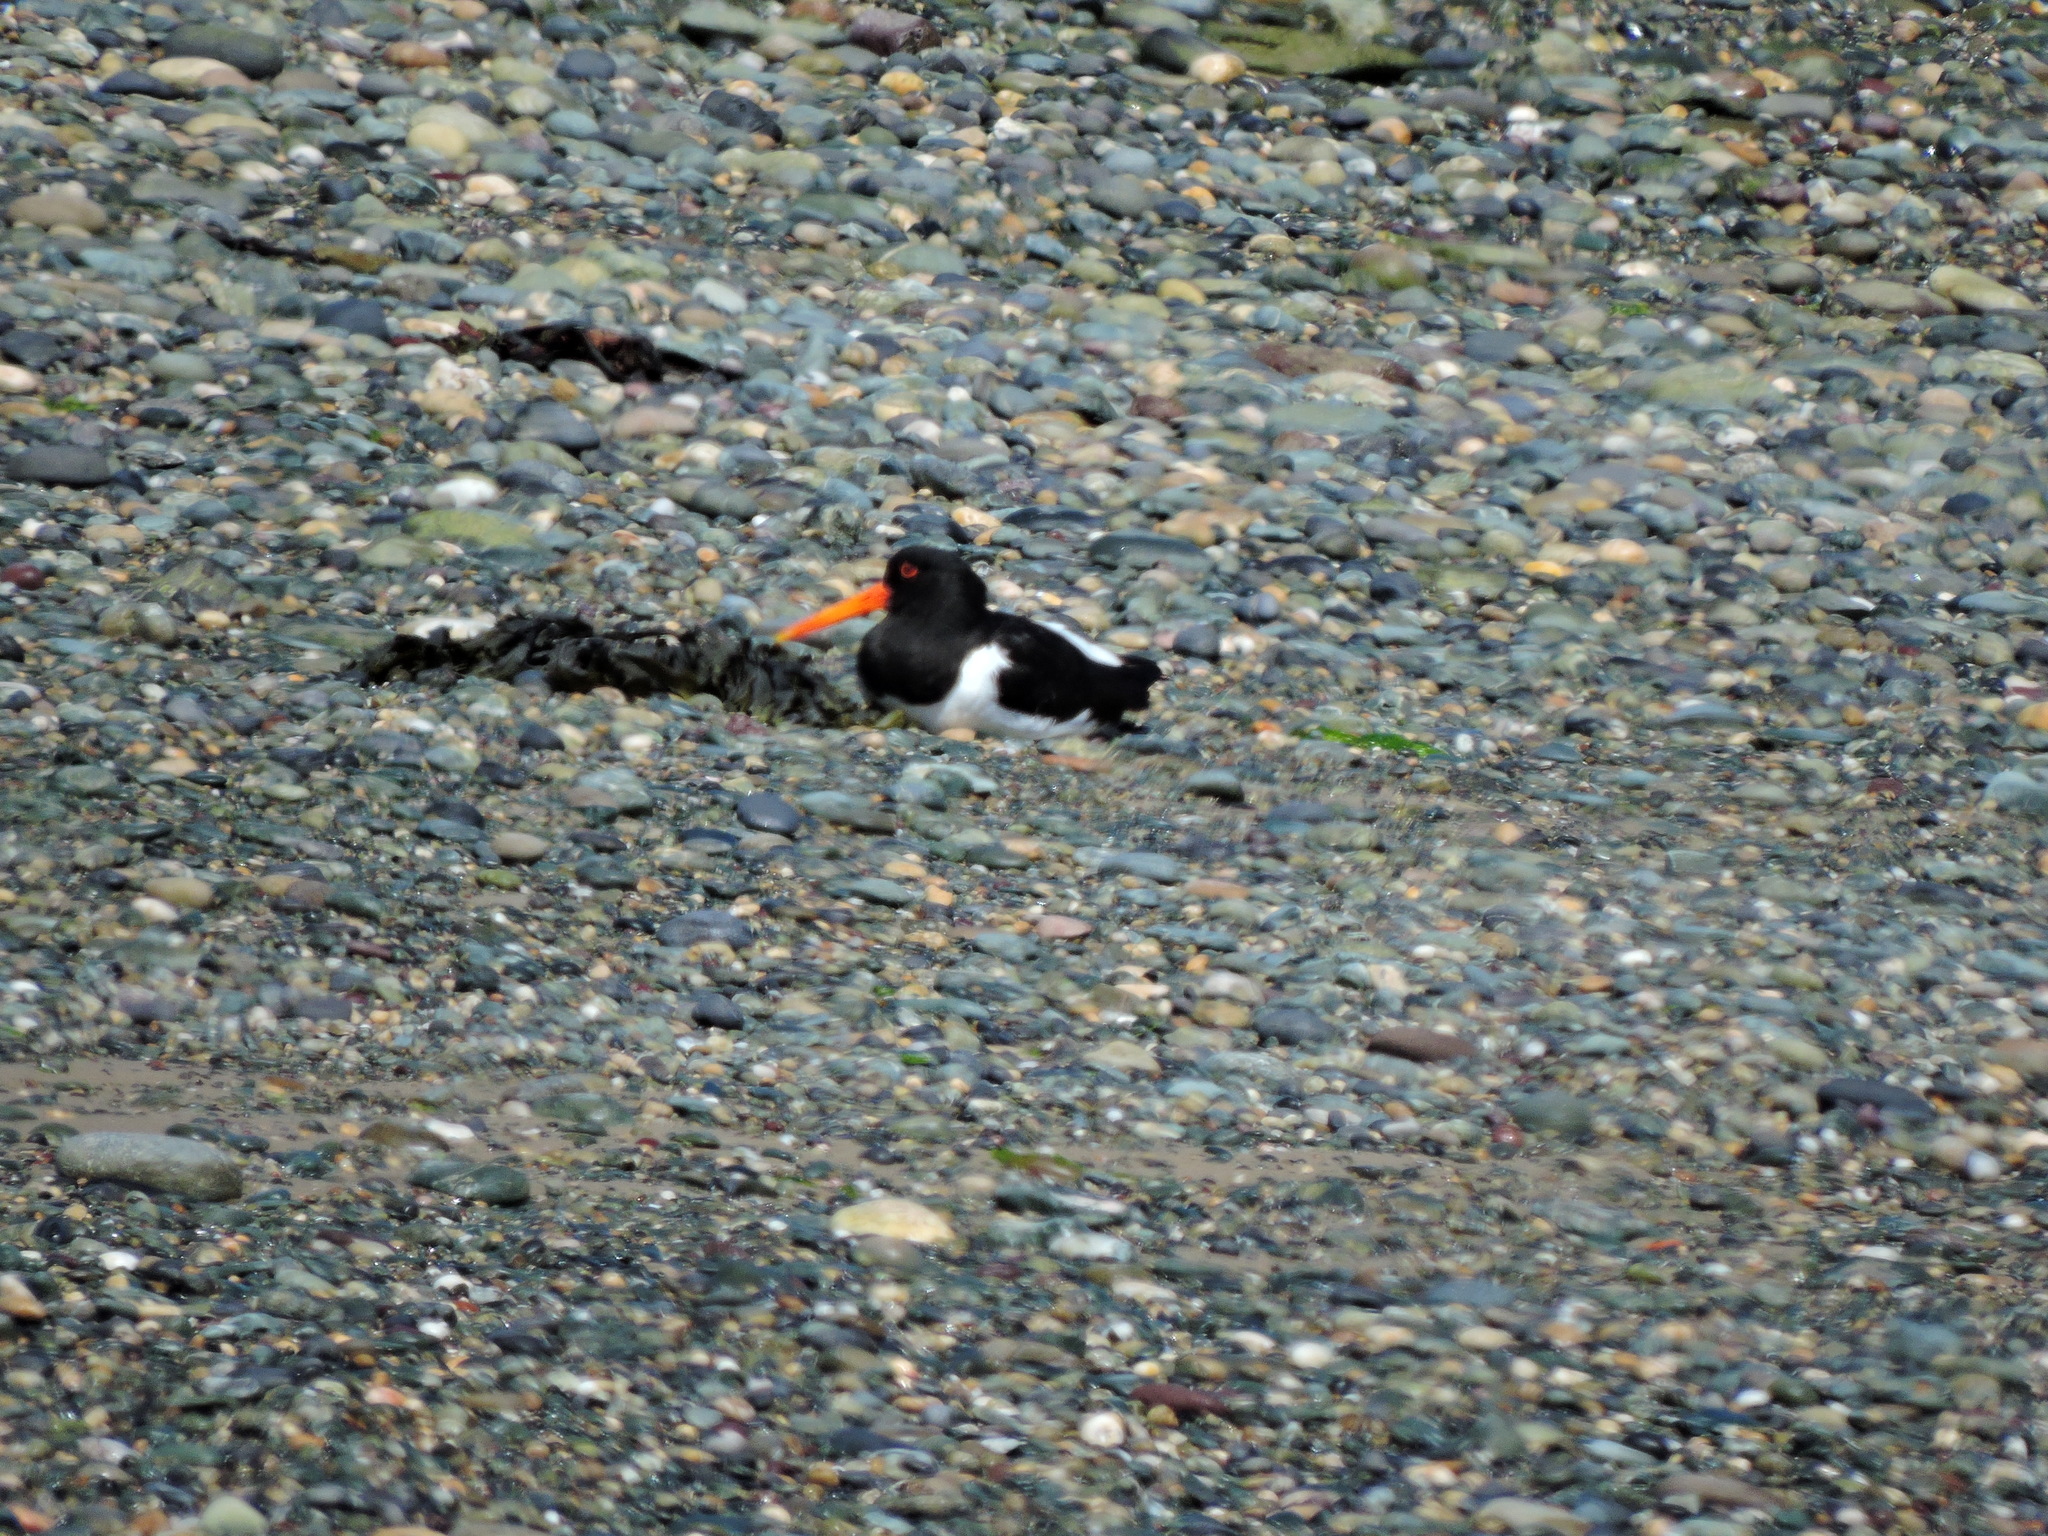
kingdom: Animalia
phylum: Chordata
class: Aves
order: Charadriiformes
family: Haematopodidae
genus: Haematopus
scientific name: Haematopus ostralegus
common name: Eurasian oystercatcher
